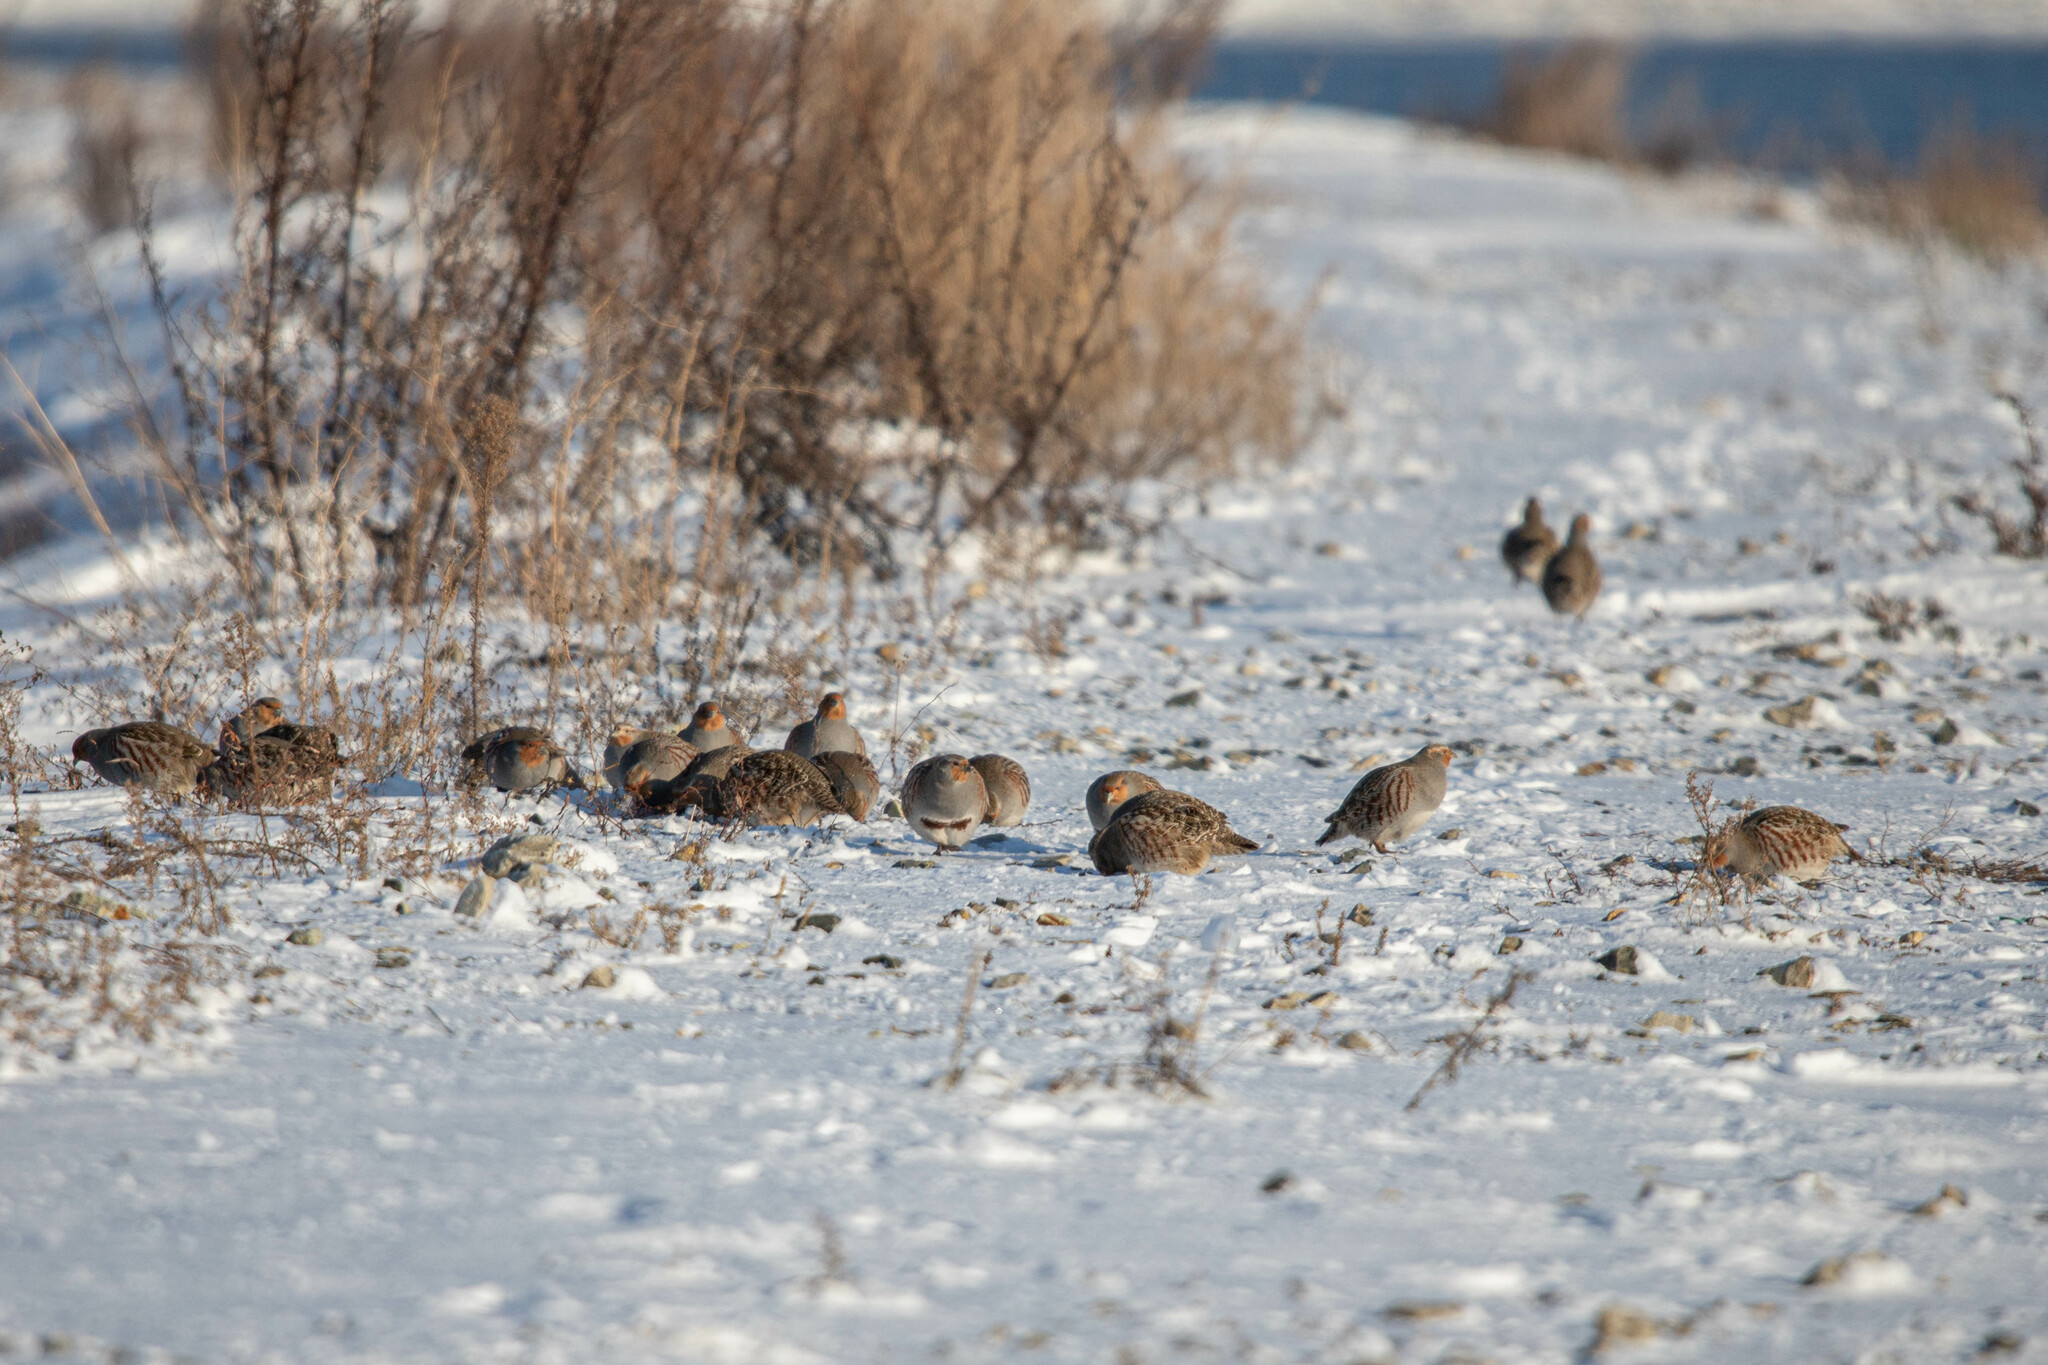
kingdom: Animalia
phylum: Chordata
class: Aves
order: Galliformes
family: Phasianidae
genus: Perdix
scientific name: Perdix perdix
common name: Grey partridge
